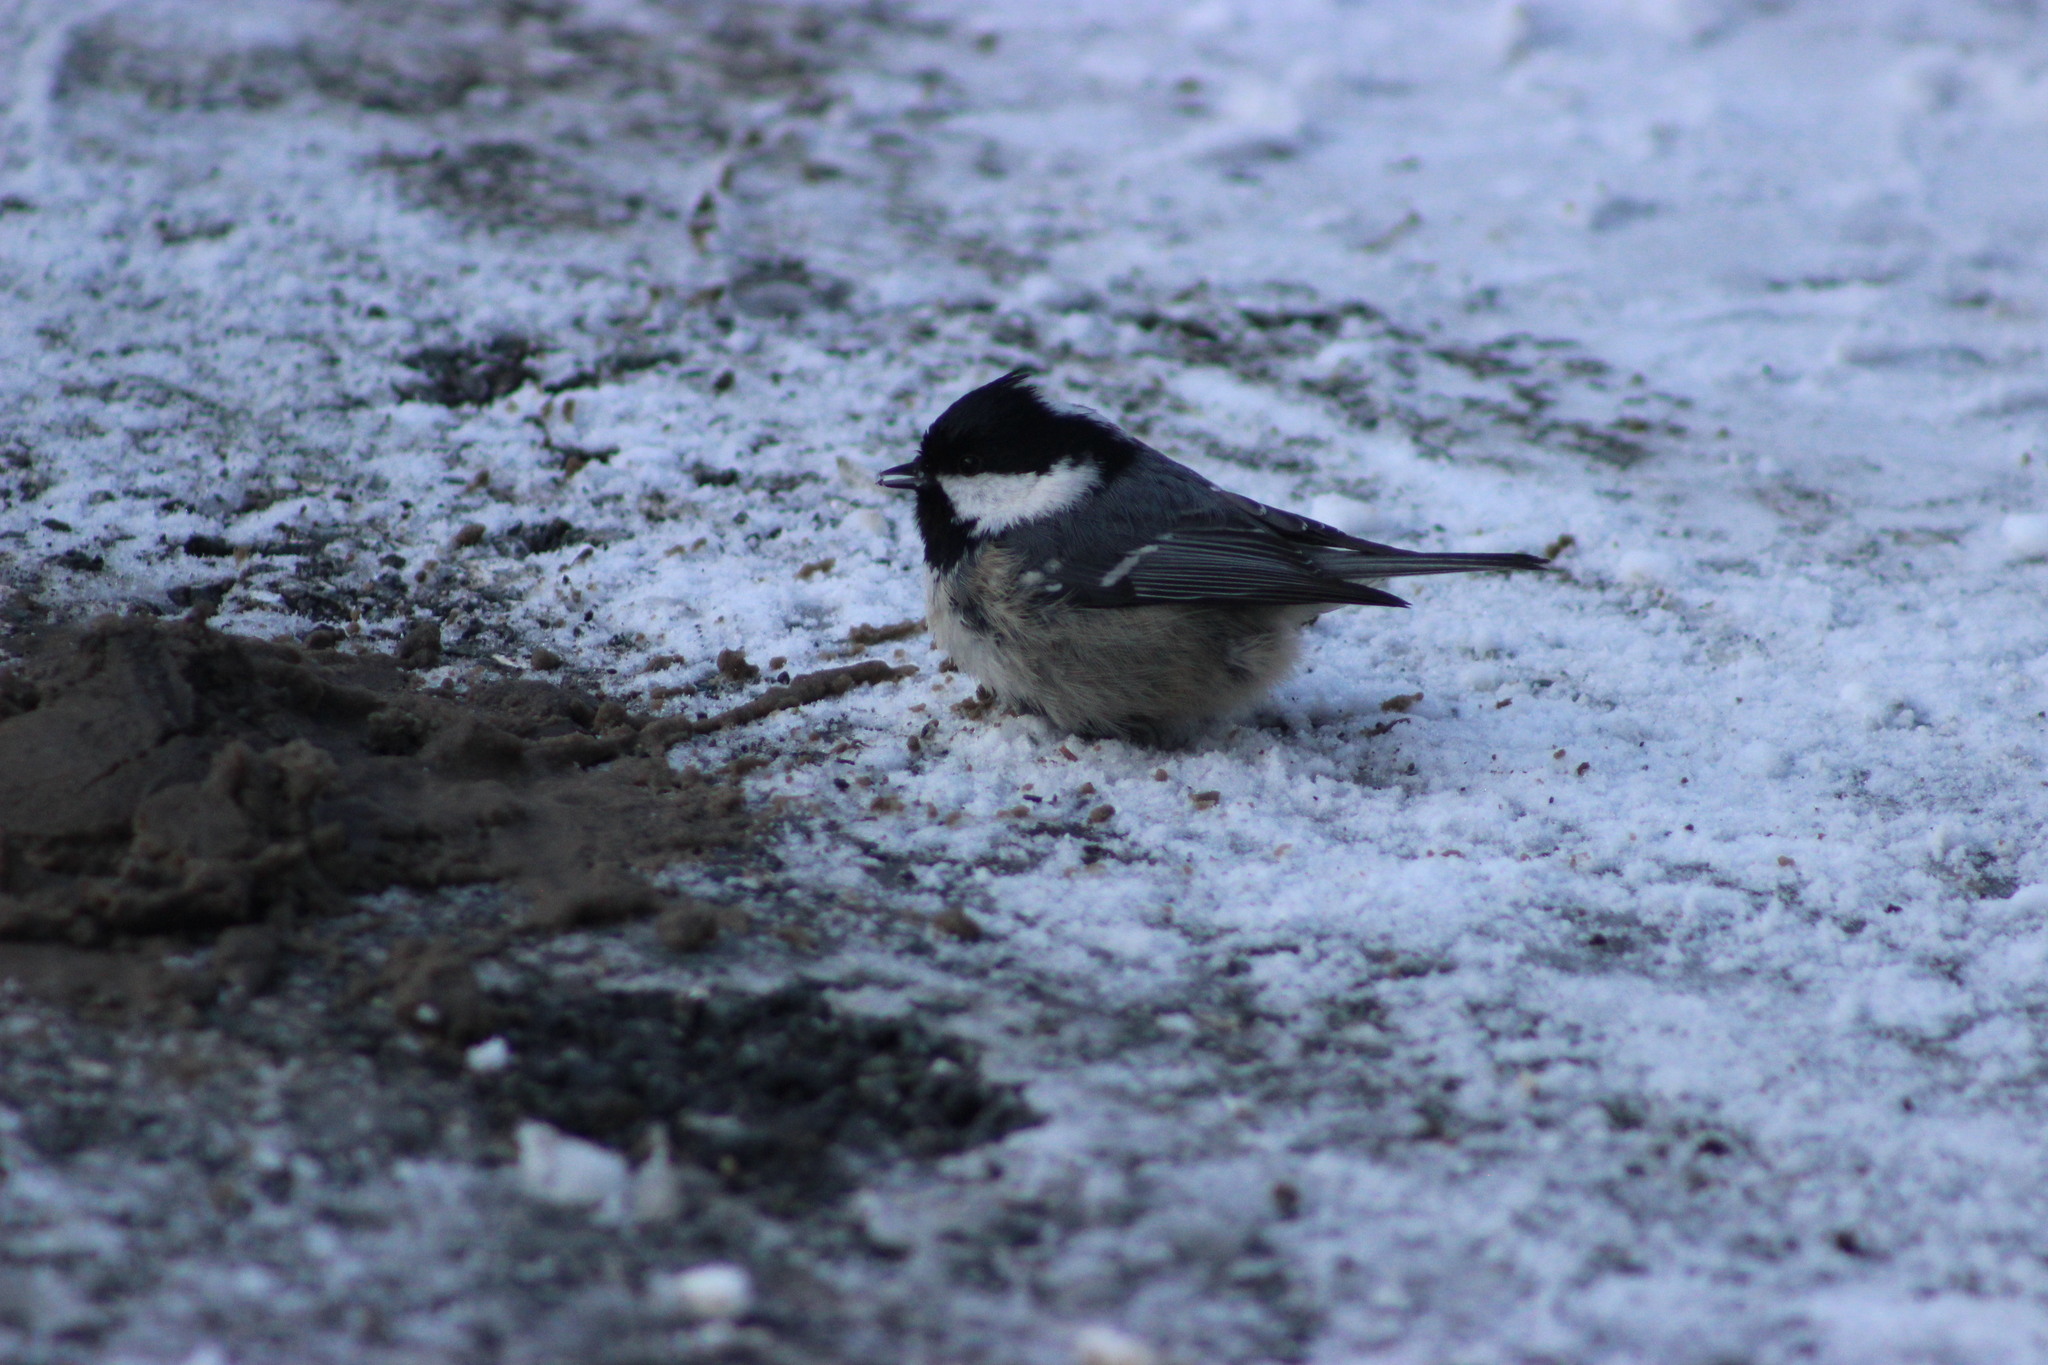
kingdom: Animalia
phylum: Chordata
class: Aves
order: Passeriformes
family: Paridae
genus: Periparus
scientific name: Periparus ater
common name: Coal tit
